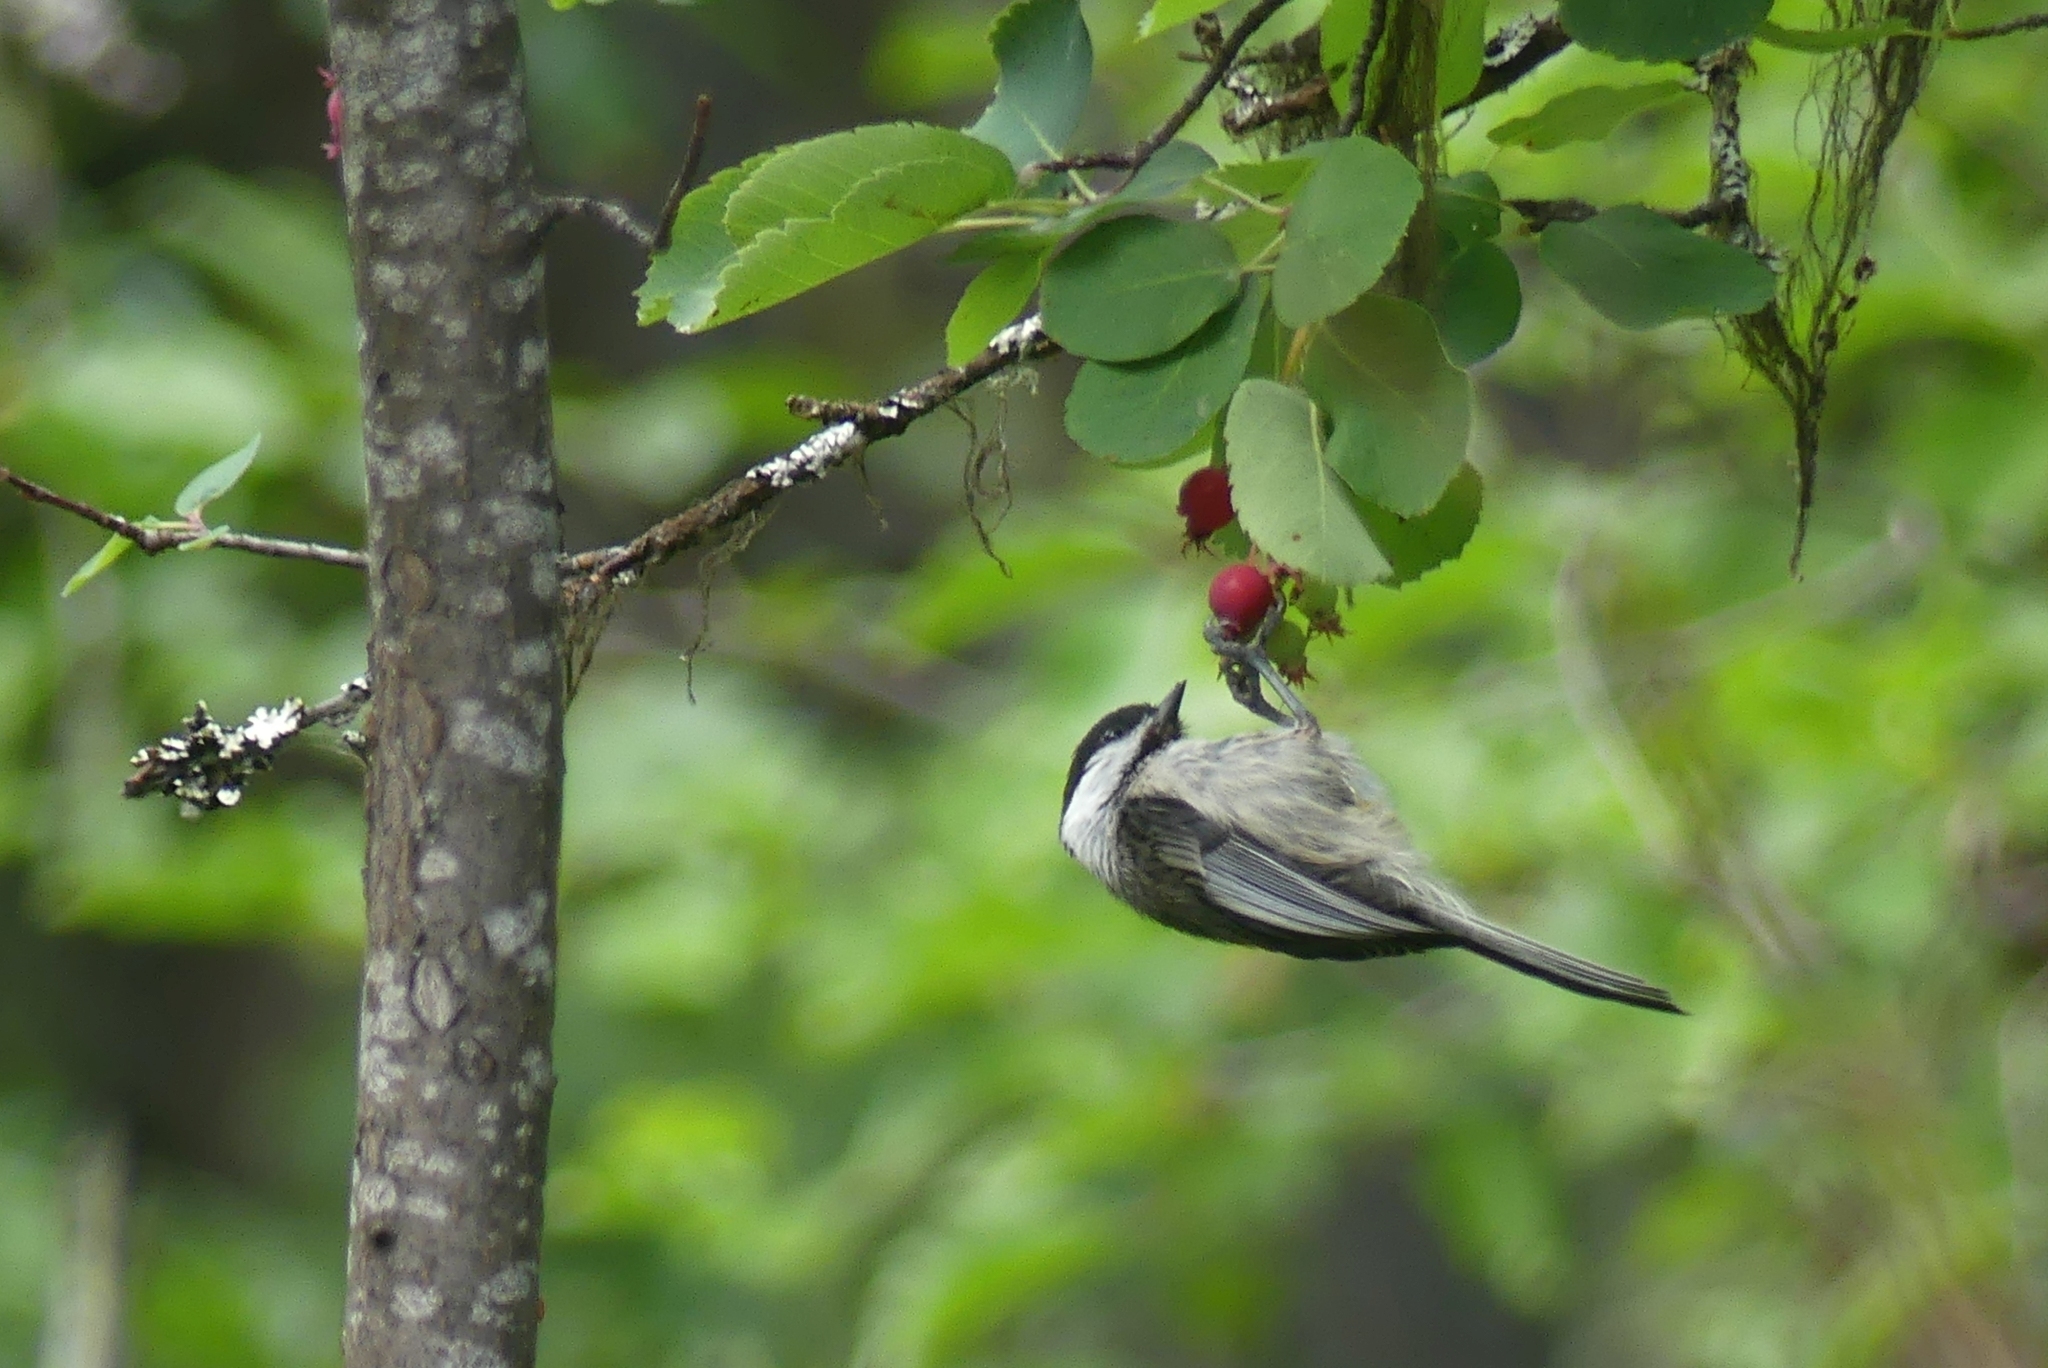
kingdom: Animalia
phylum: Chordata
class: Aves
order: Passeriformes
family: Paridae
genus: Poecile
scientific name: Poecile atricapillus
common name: Black-capped chickadee
